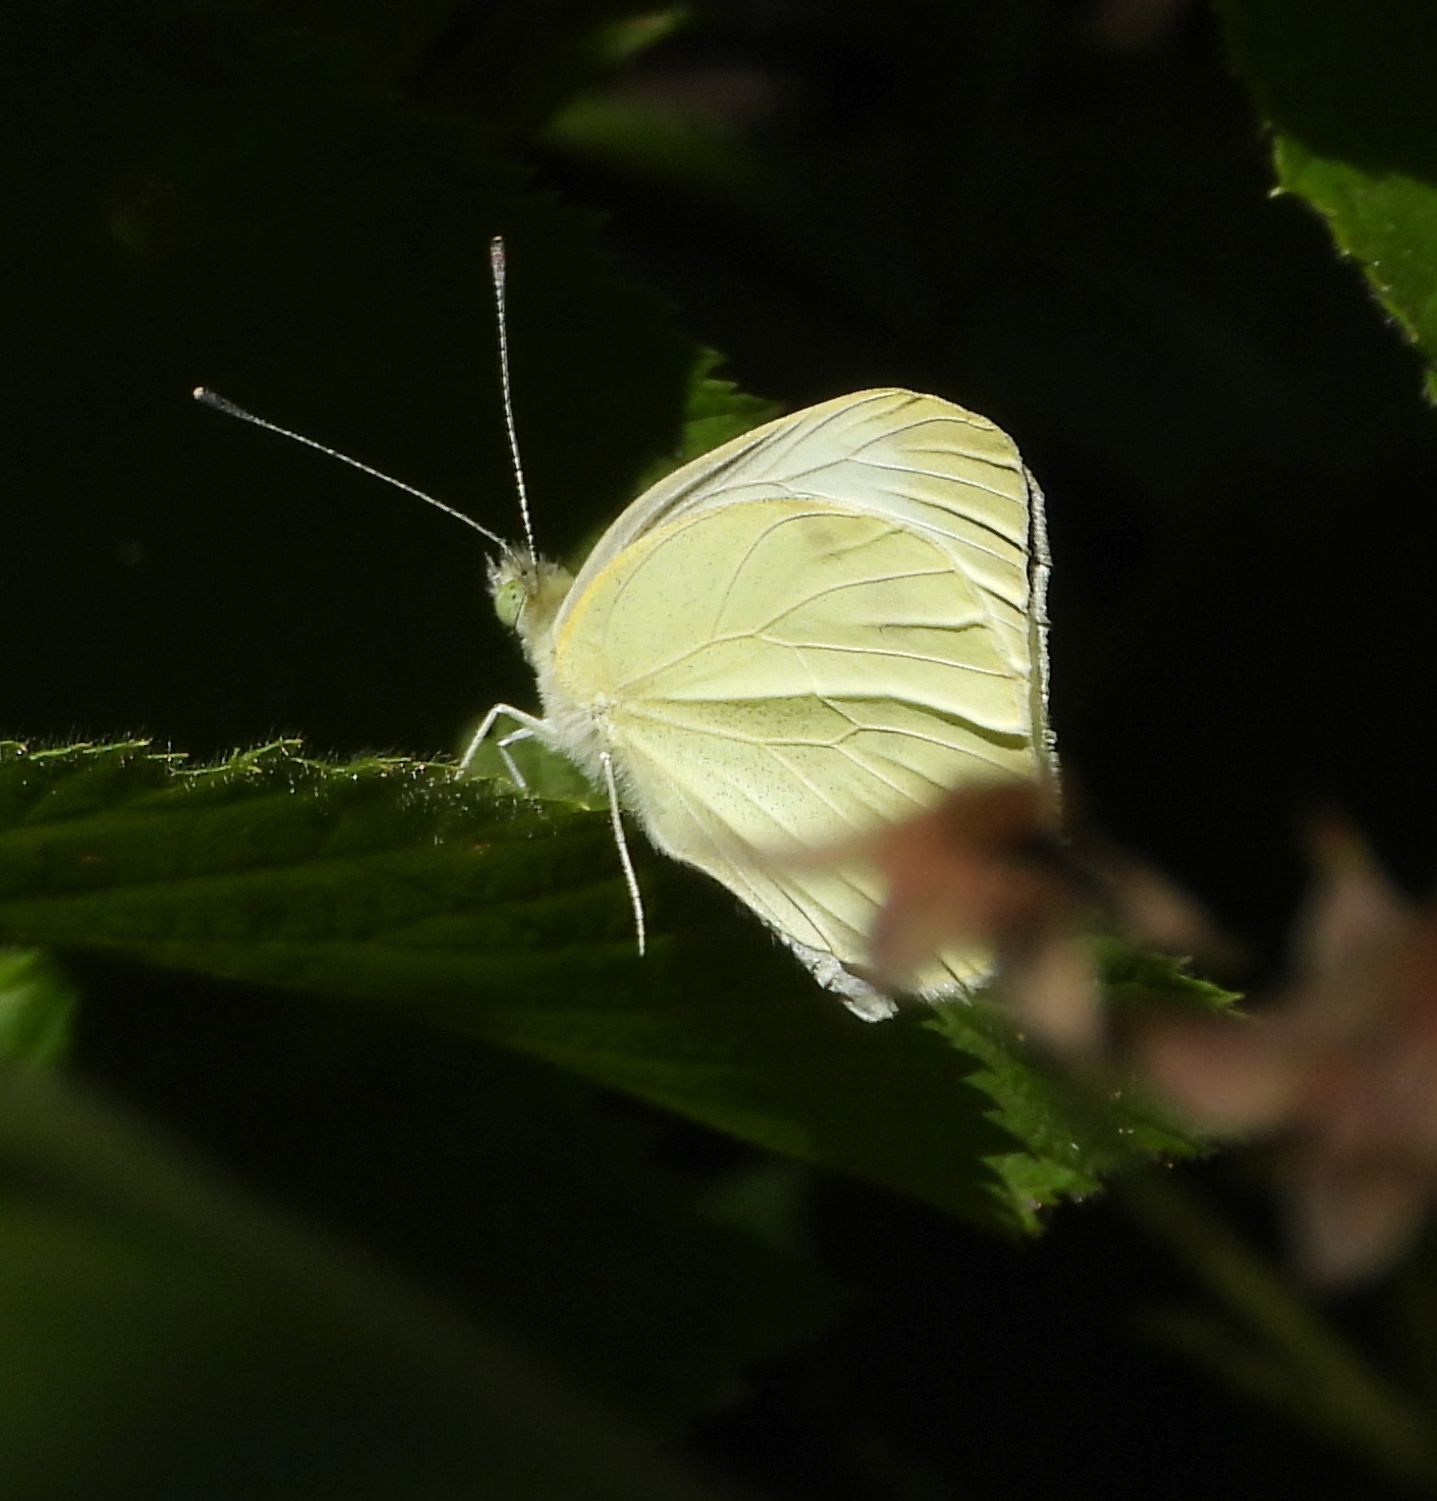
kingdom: Animalia
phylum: Arthropoda
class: Insecta
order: Lepidoptera
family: Pieridae
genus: Pieris
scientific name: Pieris rapae
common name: Small white
